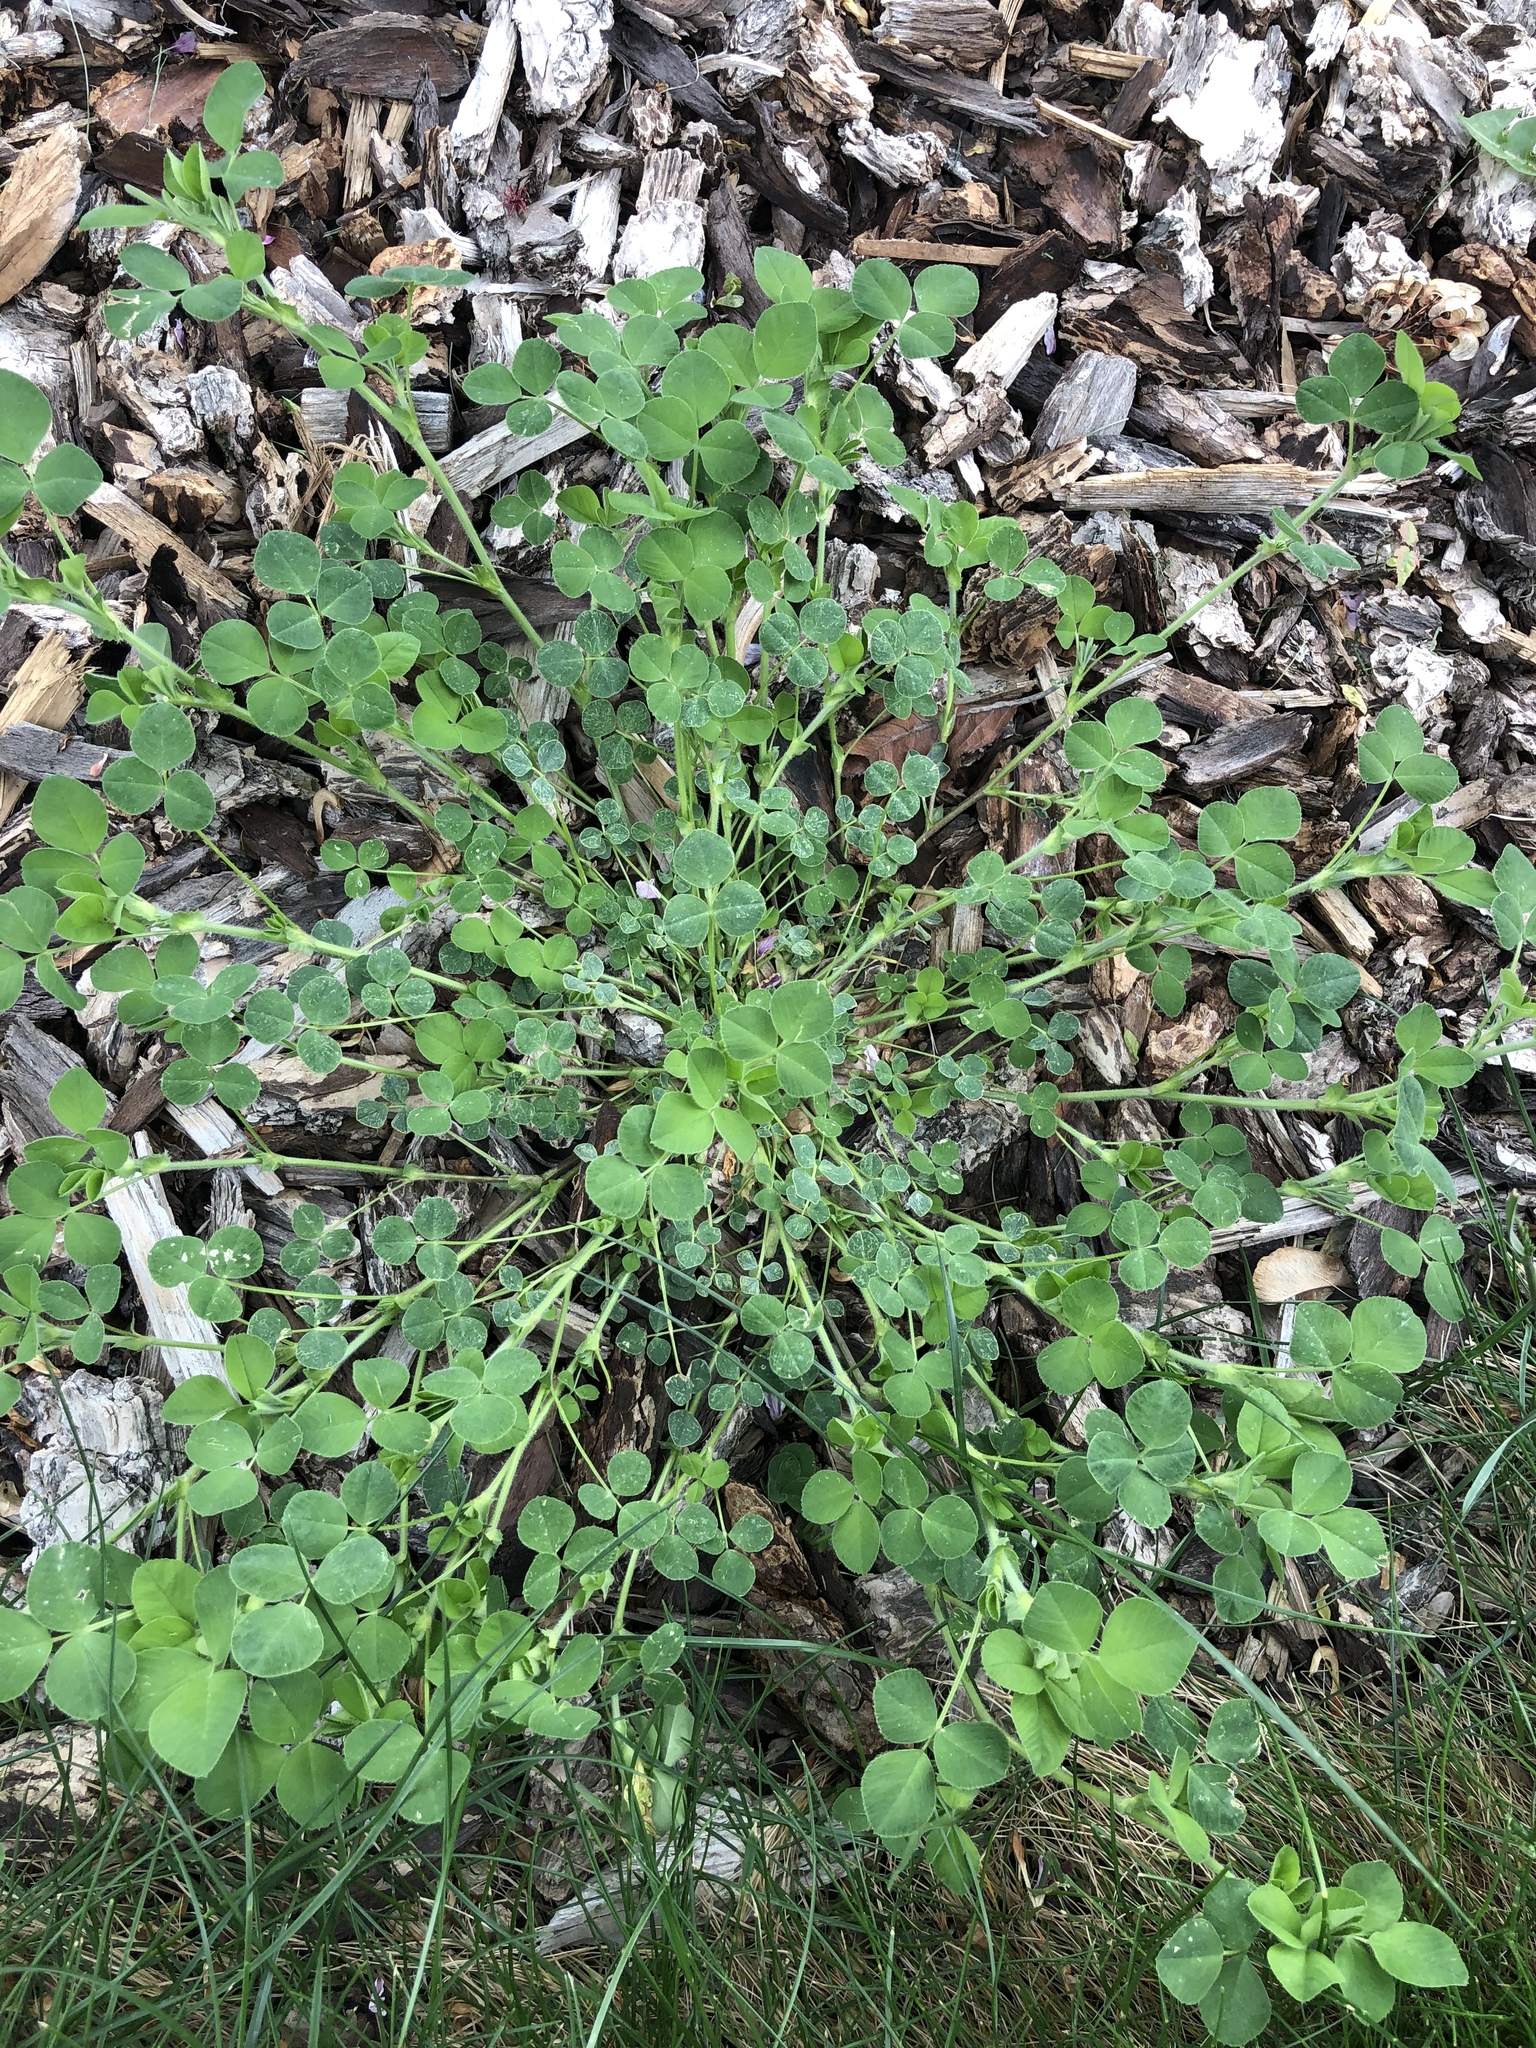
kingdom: Plantae
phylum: Tracheophyta
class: Magnoliopsida
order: Fabales
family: Fabaceae
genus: Medicago
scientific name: Medicago lupulina
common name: Black medick
